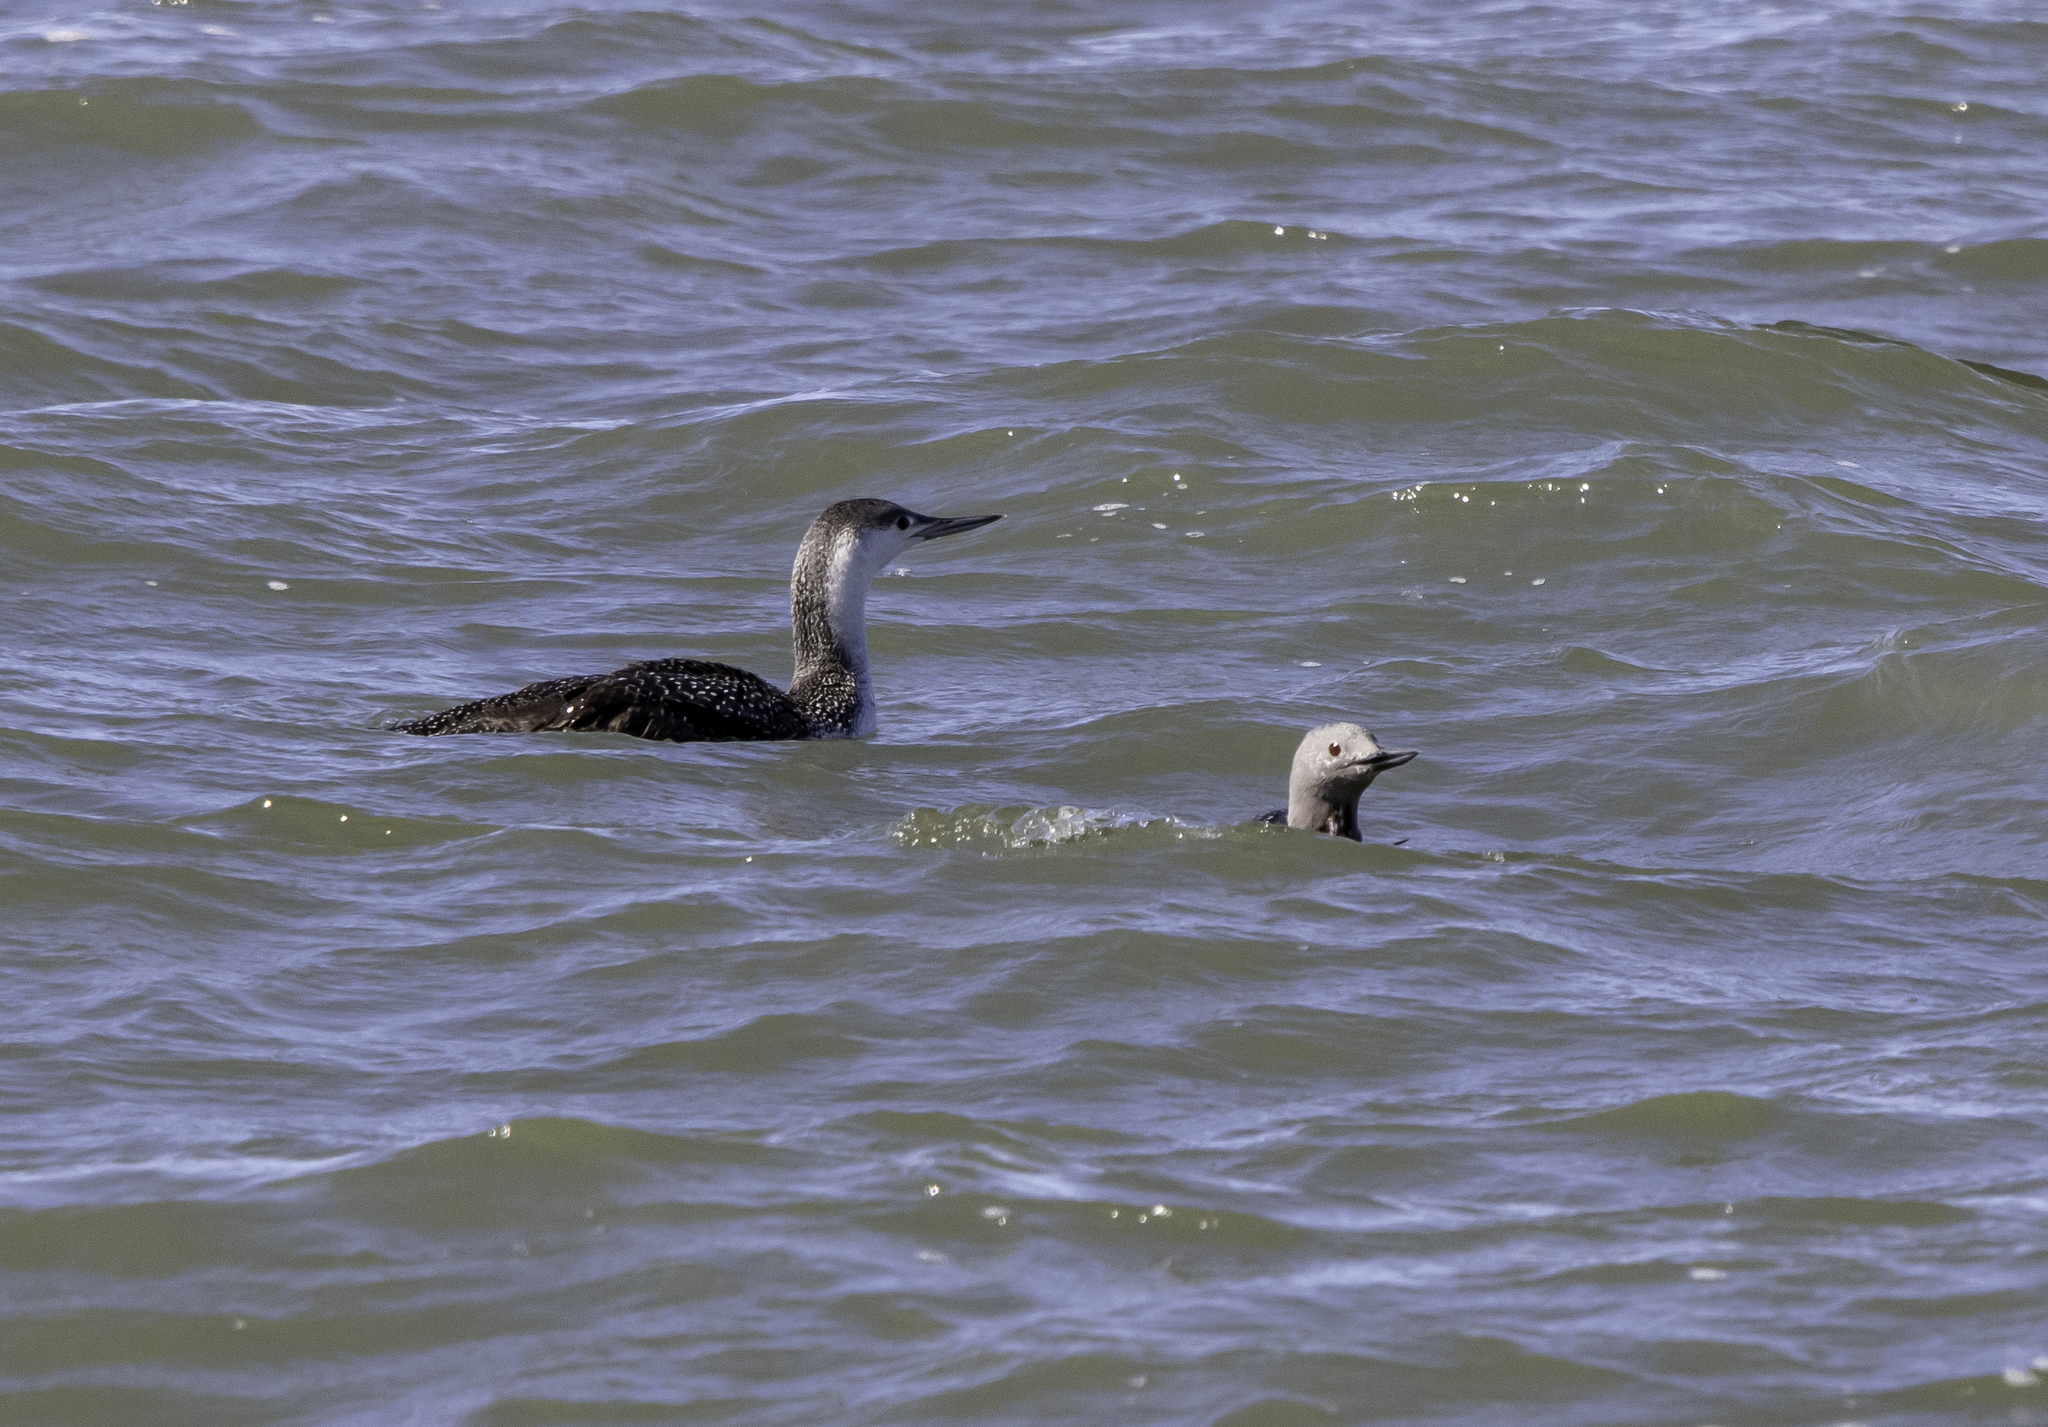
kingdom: Animalia
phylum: Chordata
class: Aves
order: Gaviiformes
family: Gaviidae
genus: Gavia
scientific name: Gavia stellata
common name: Red-throated loon
